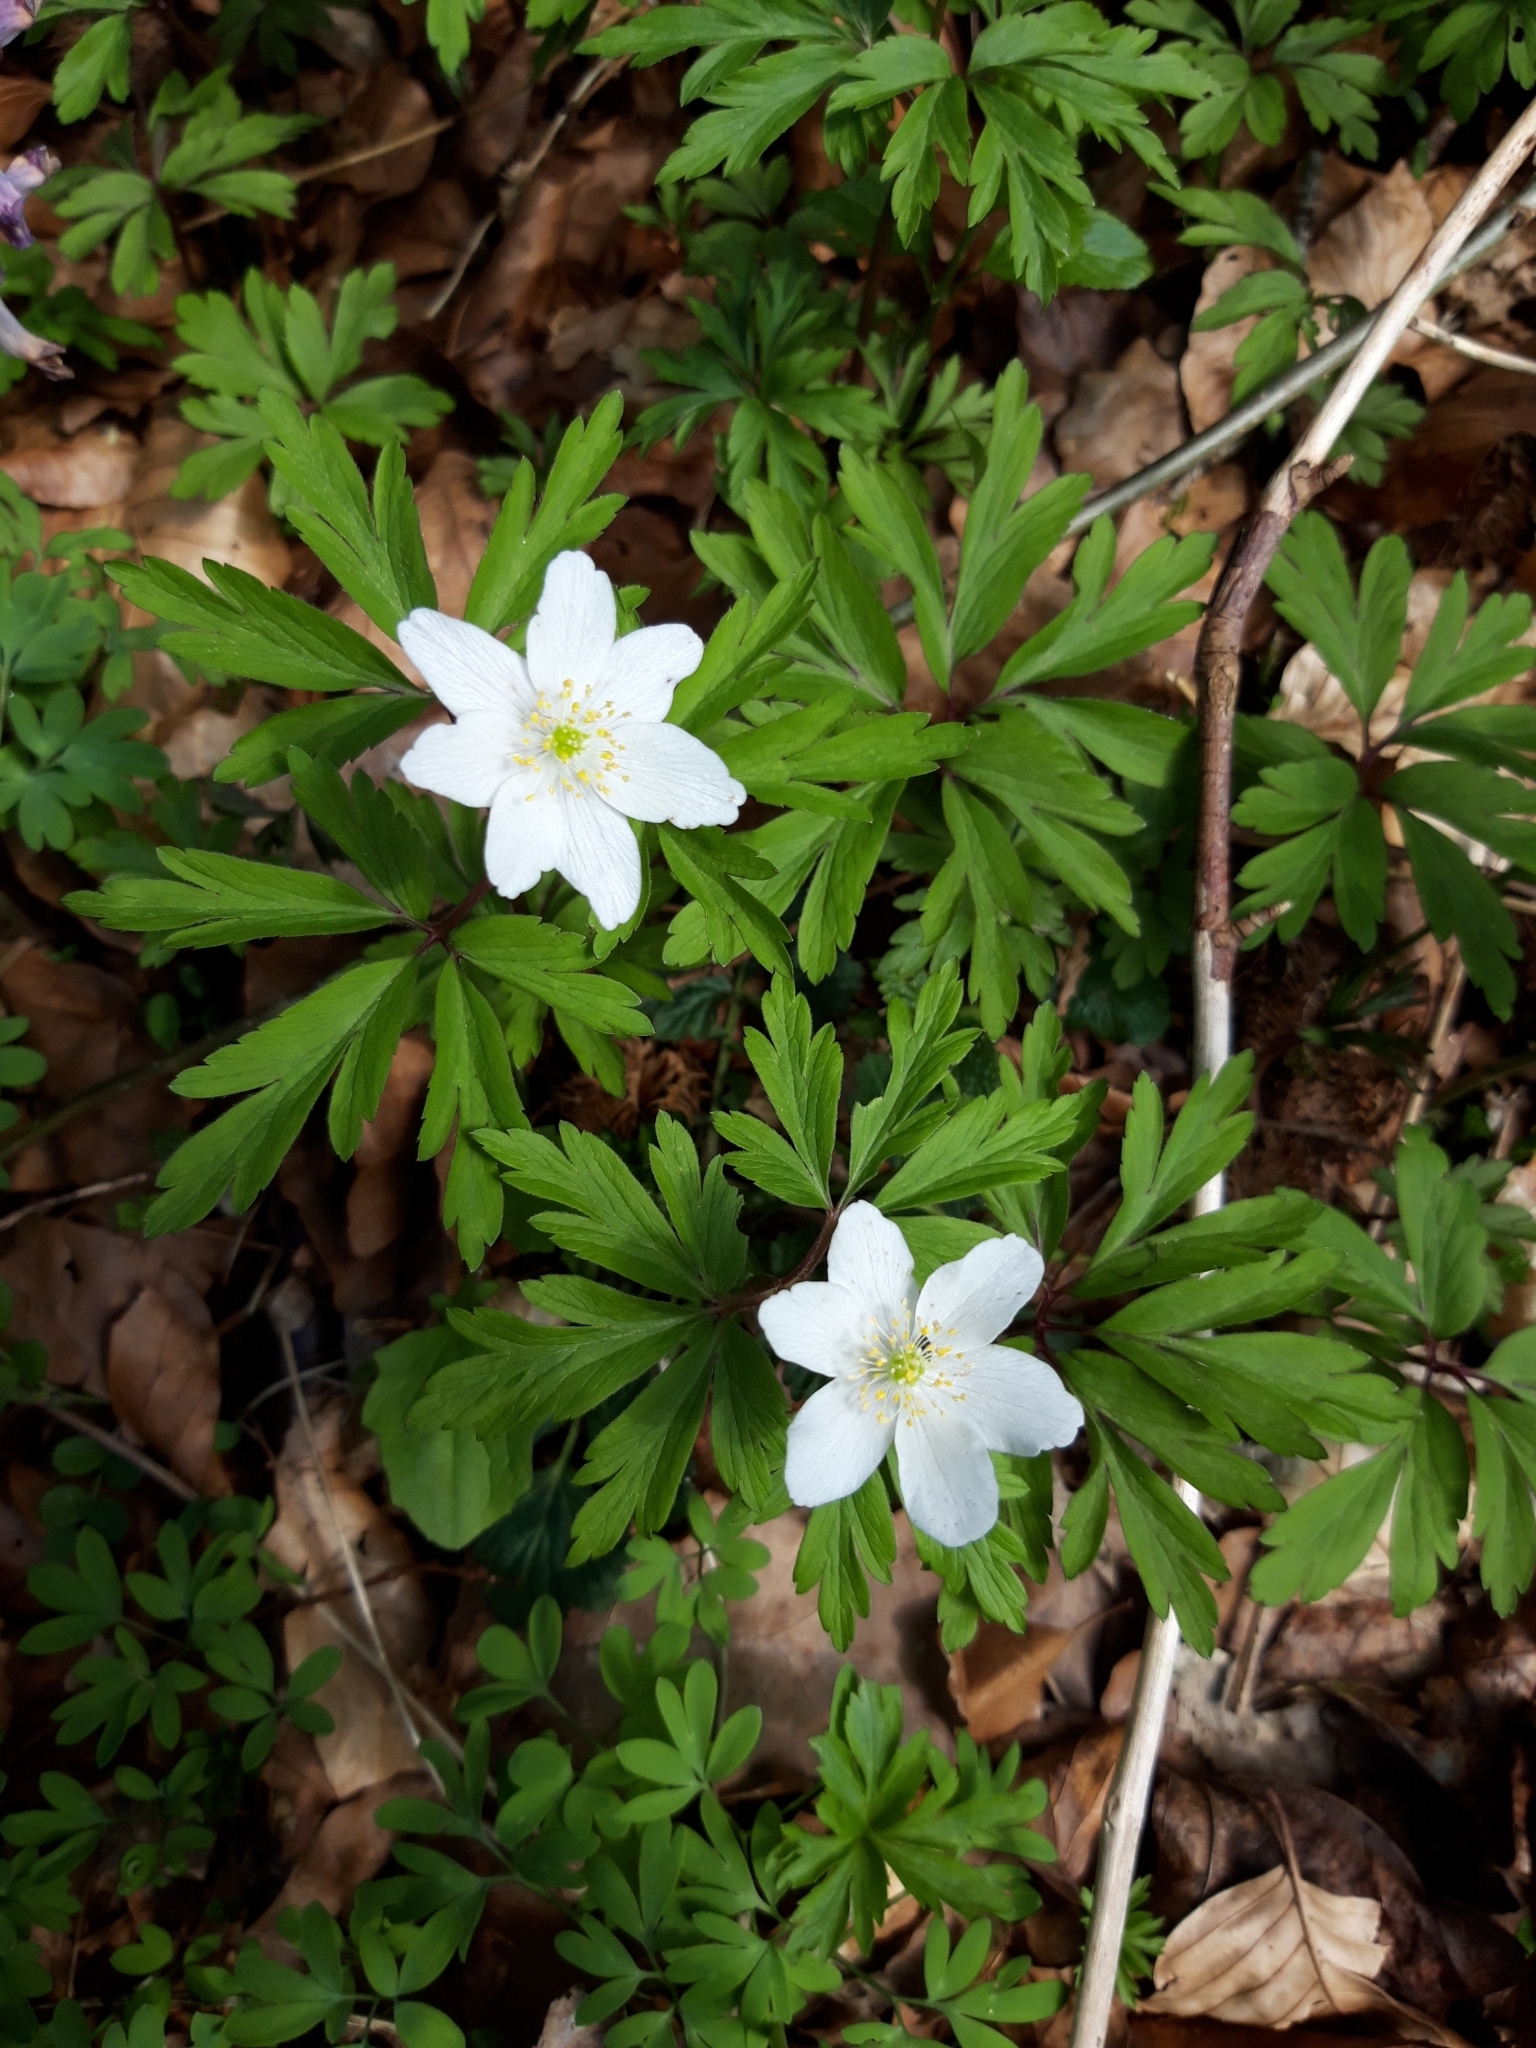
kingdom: Plantae
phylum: Tracheophyta
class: Magnoliopsida
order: Ranunculales
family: Ranunculaceae
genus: Anemone
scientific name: Anemone nemorosa
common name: Wood anemone
